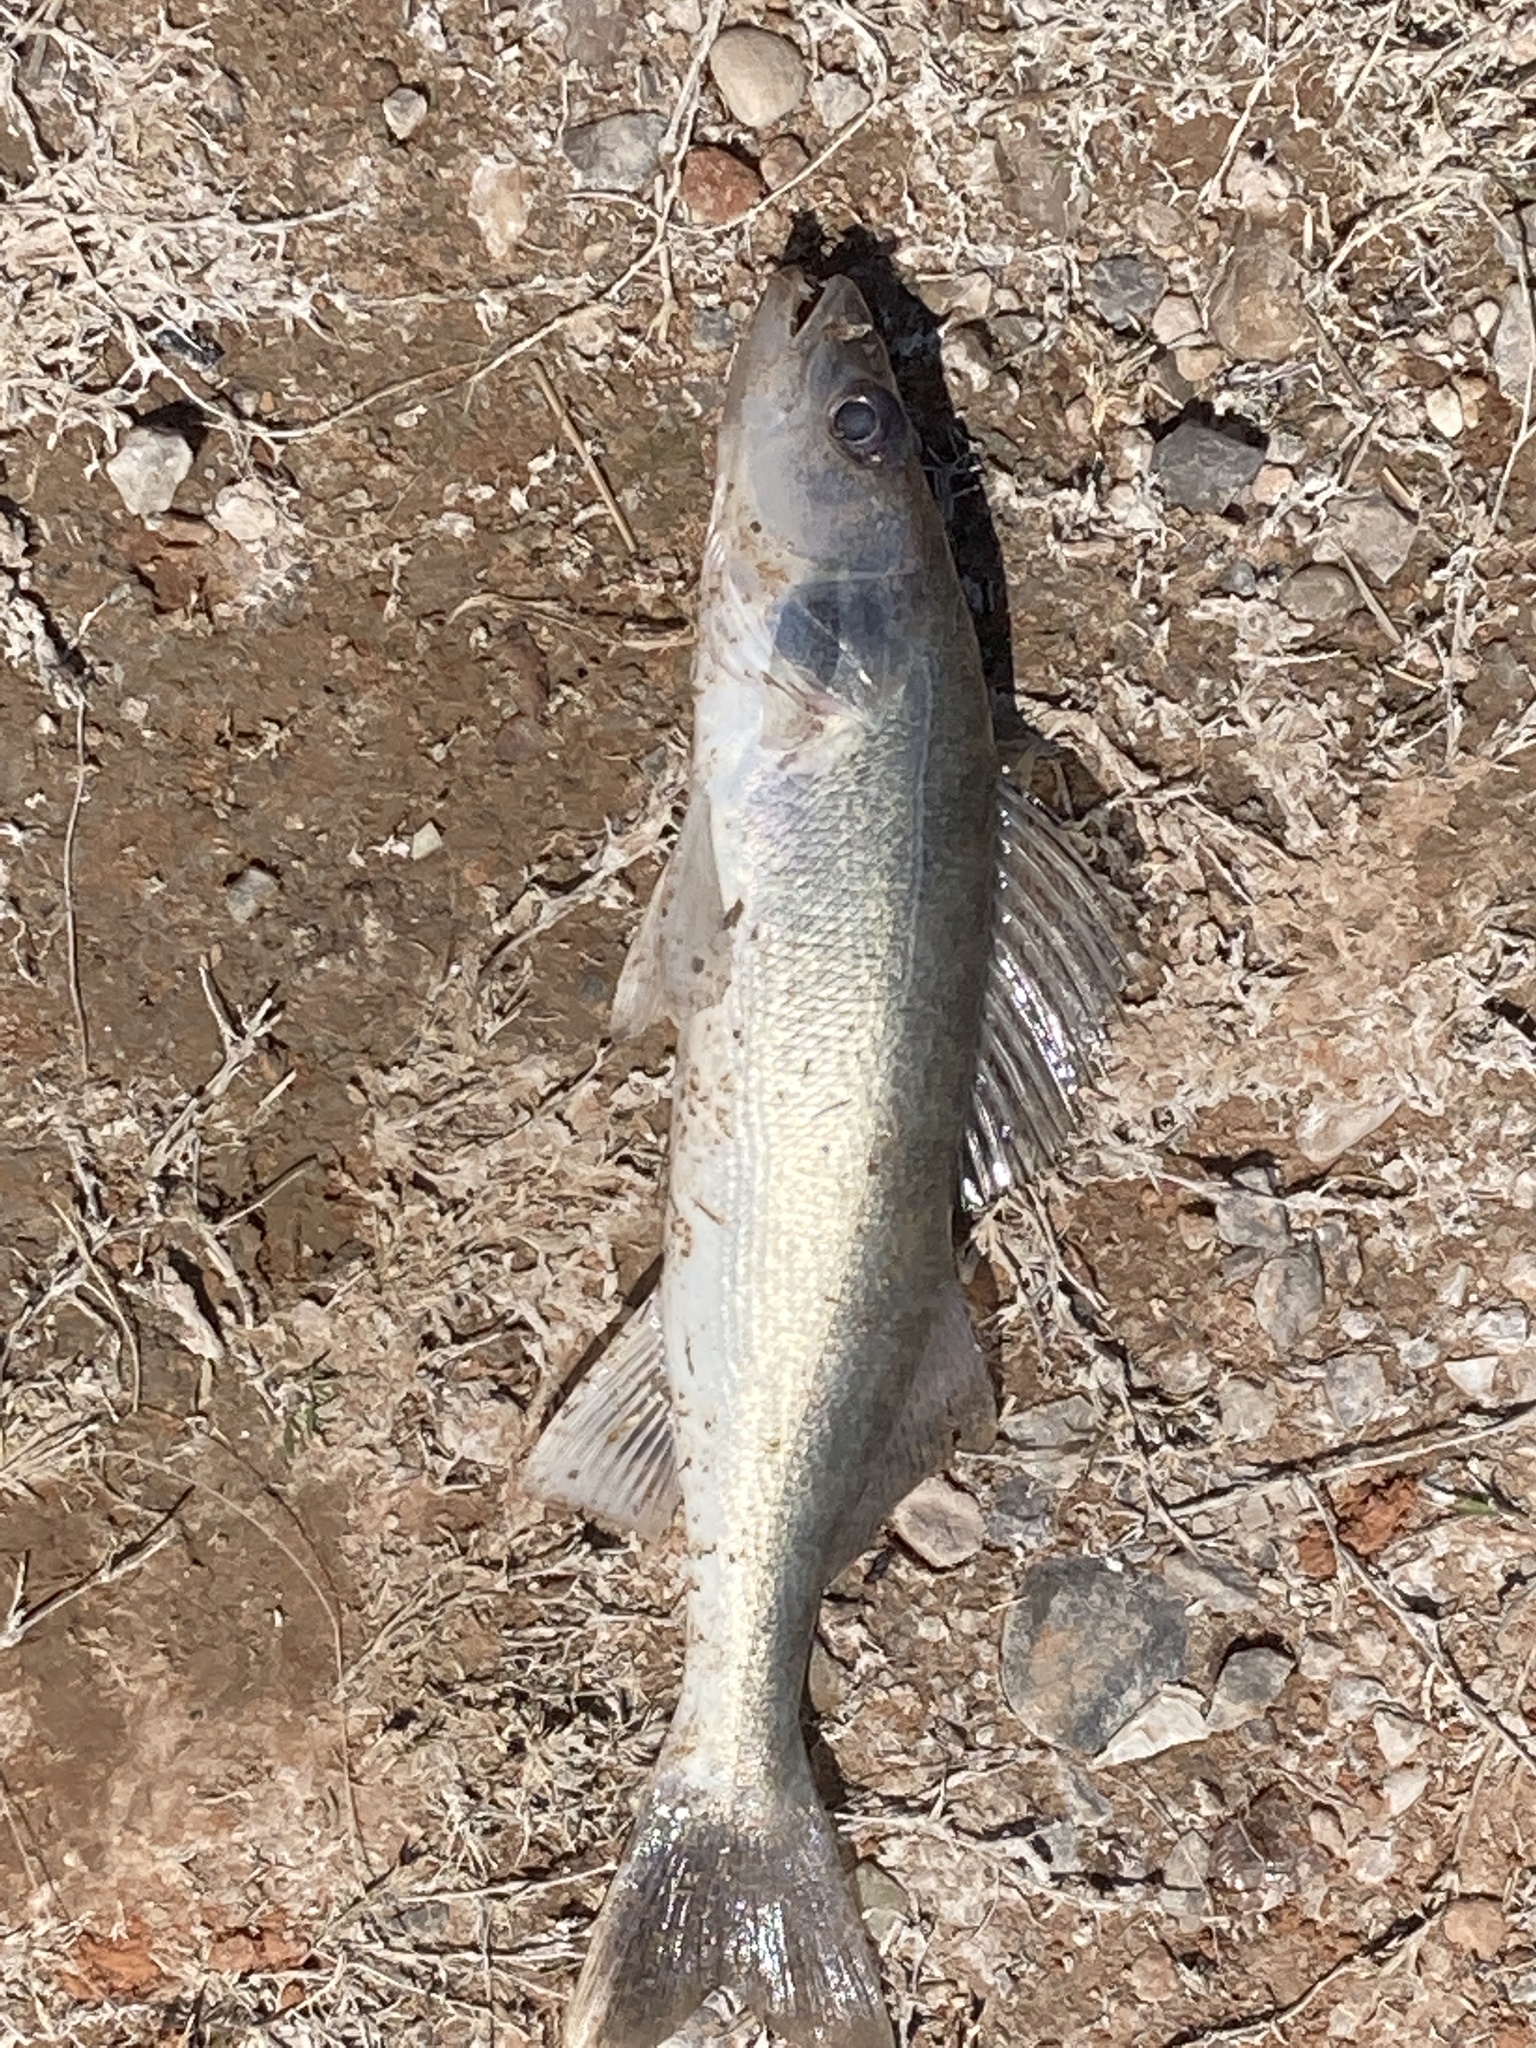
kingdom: Animalia
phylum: Chordata
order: Perciformes
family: Percidae
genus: Sander
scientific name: Sander vitreus
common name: Walleye
